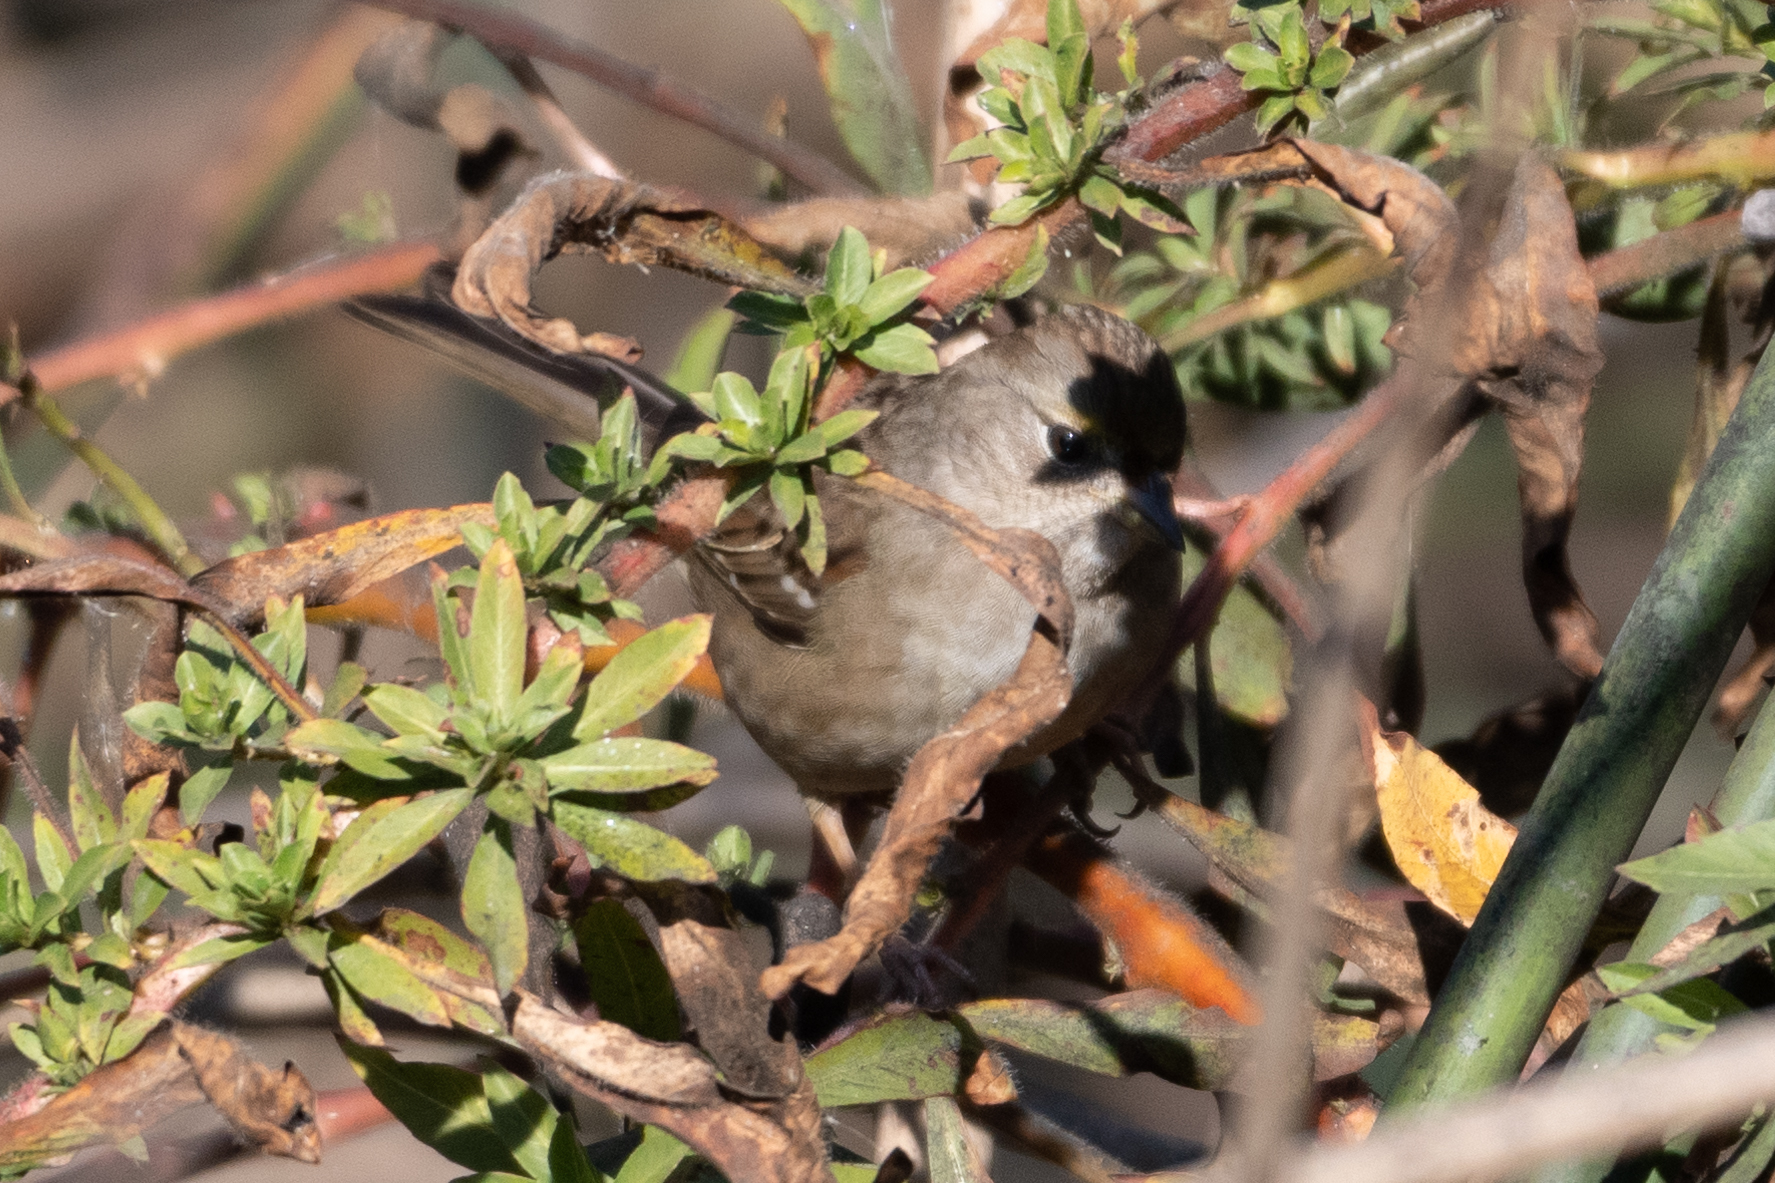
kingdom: Animalia
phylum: Chordata
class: Aves
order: Passeriformes
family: Passerellidae
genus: Zonotrichia
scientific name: Zonotrichia atricapilla
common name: Golden-crowned sparrow
